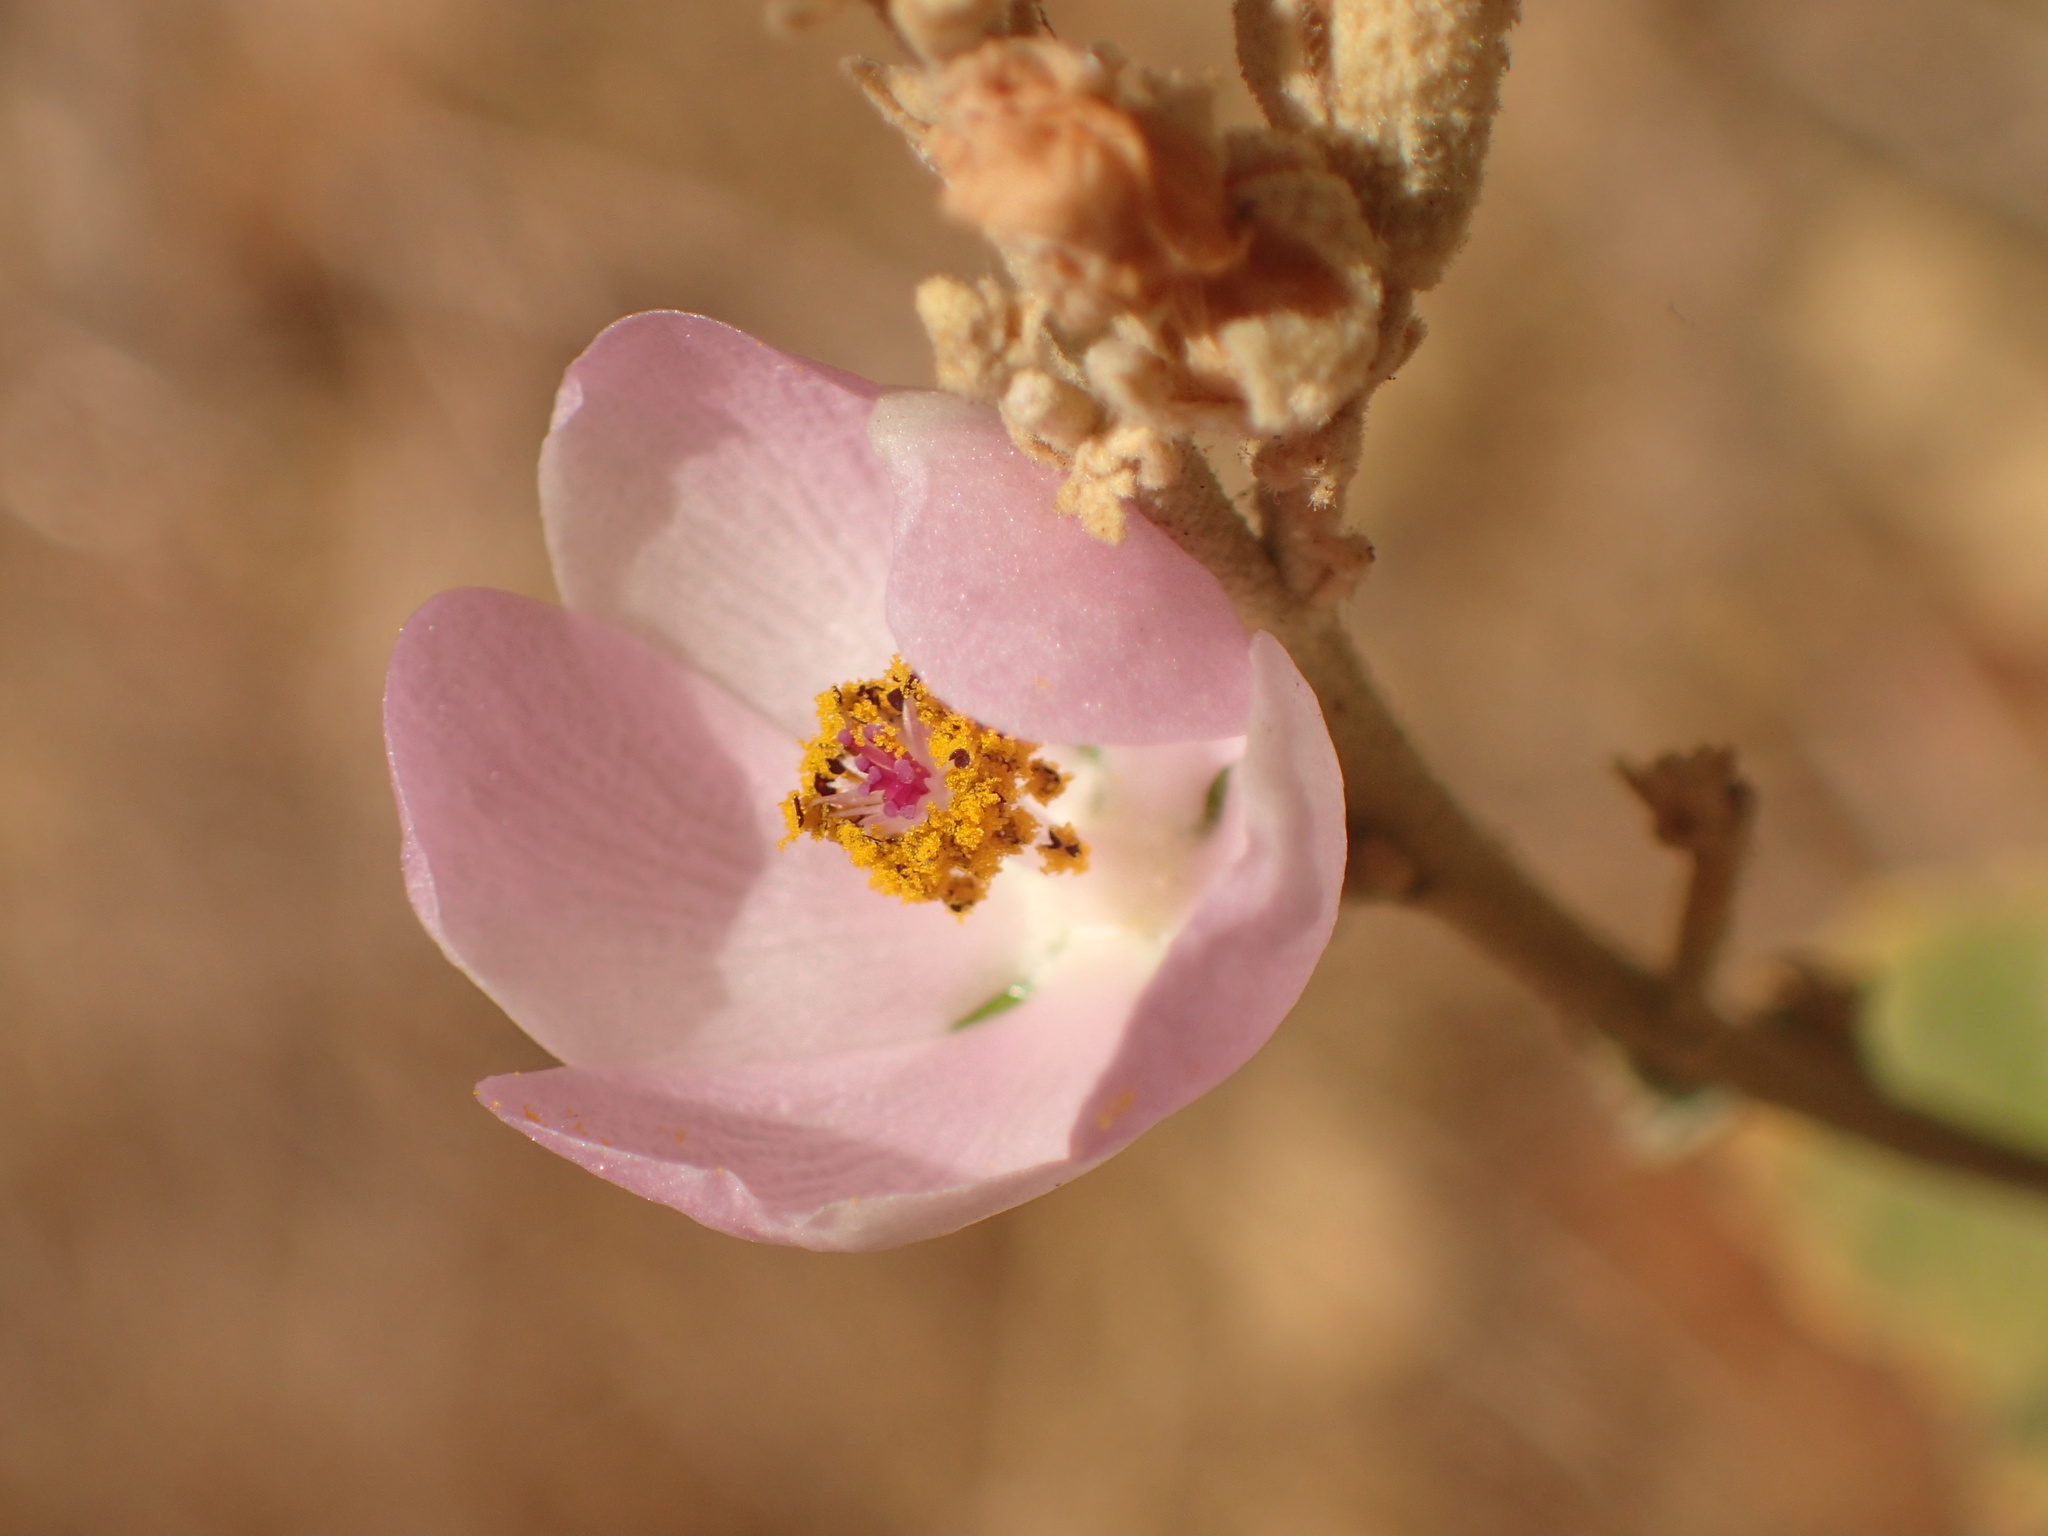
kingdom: Plantae
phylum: Tracheophyta
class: Magnoliopsida
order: Malvales
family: Malvaceae
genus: Malacothamnus
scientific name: Malacothamnus fasciculatus
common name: Sant cruz island bush-mallow
